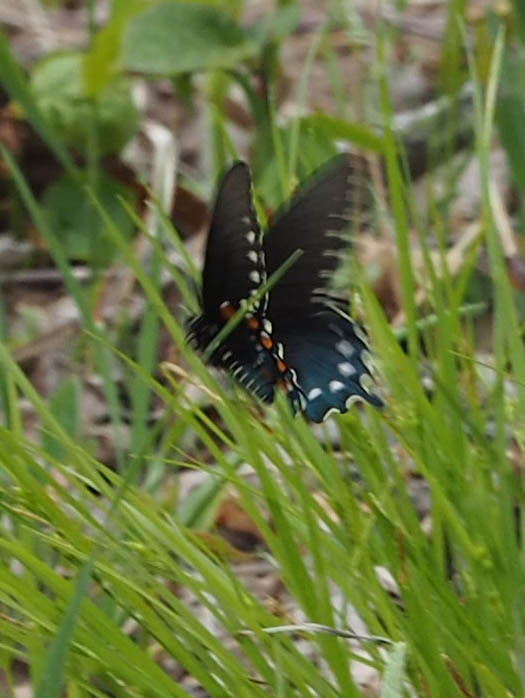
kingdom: Animalia
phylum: Arthropoda
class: Insecta
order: Lepidoptera
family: Papilionidae
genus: Battus
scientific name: Battus philenor
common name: Pipevine swallowtail
